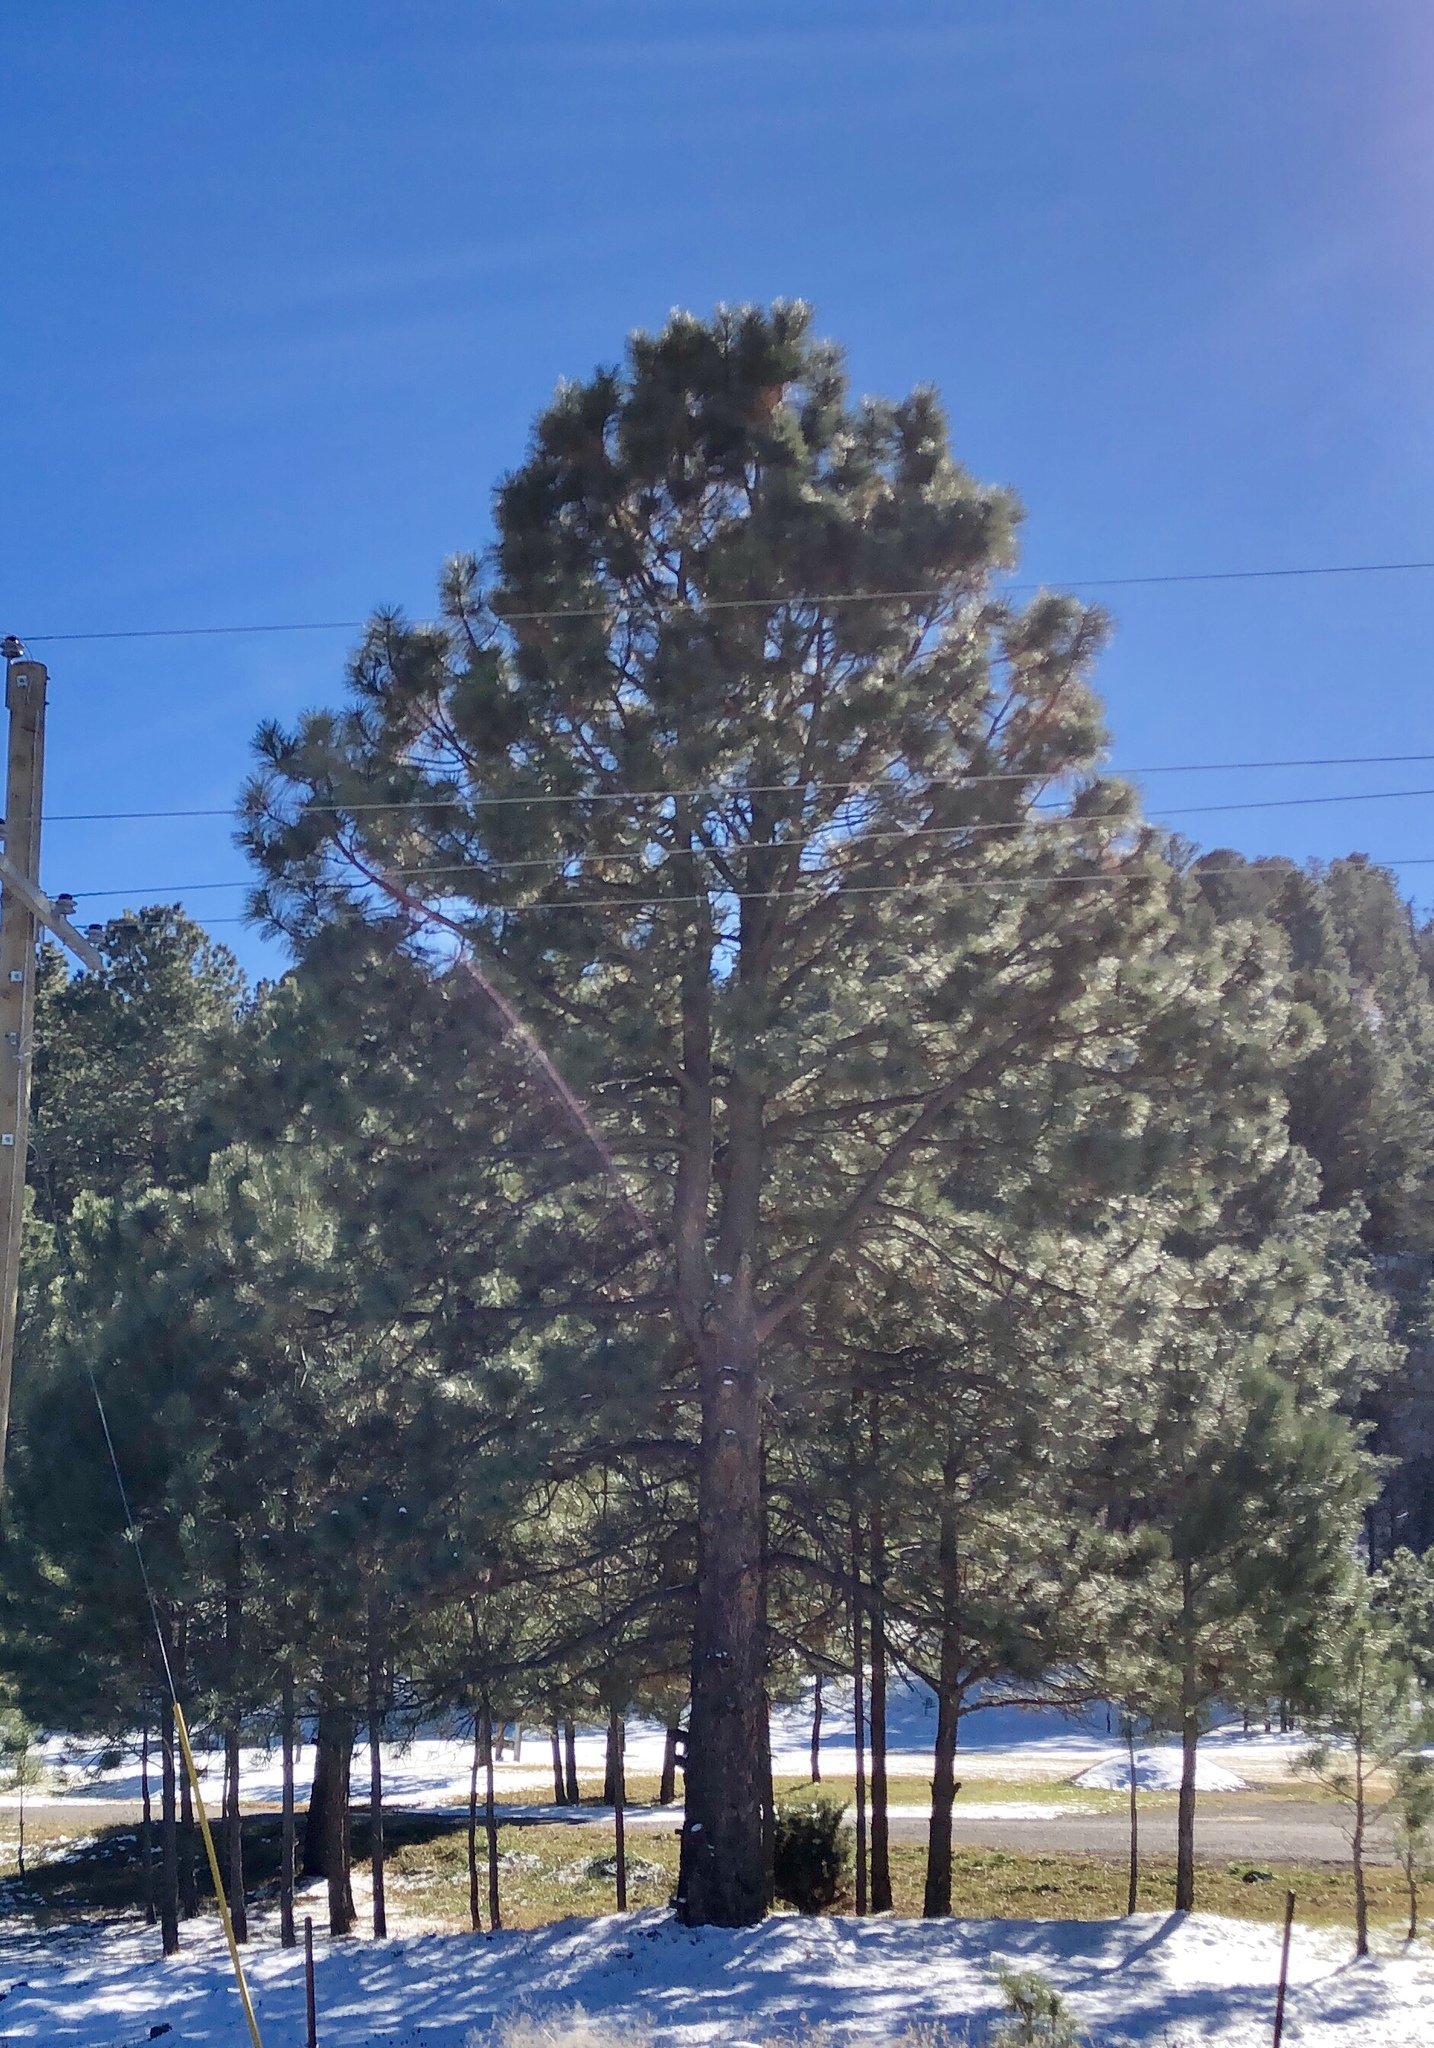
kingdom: Plantae
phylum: Tracheophyta
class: Pinopsida
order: Pinales
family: Pinaceae
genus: Pinus
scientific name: Pinus ponderosa
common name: Western yellow-pine
